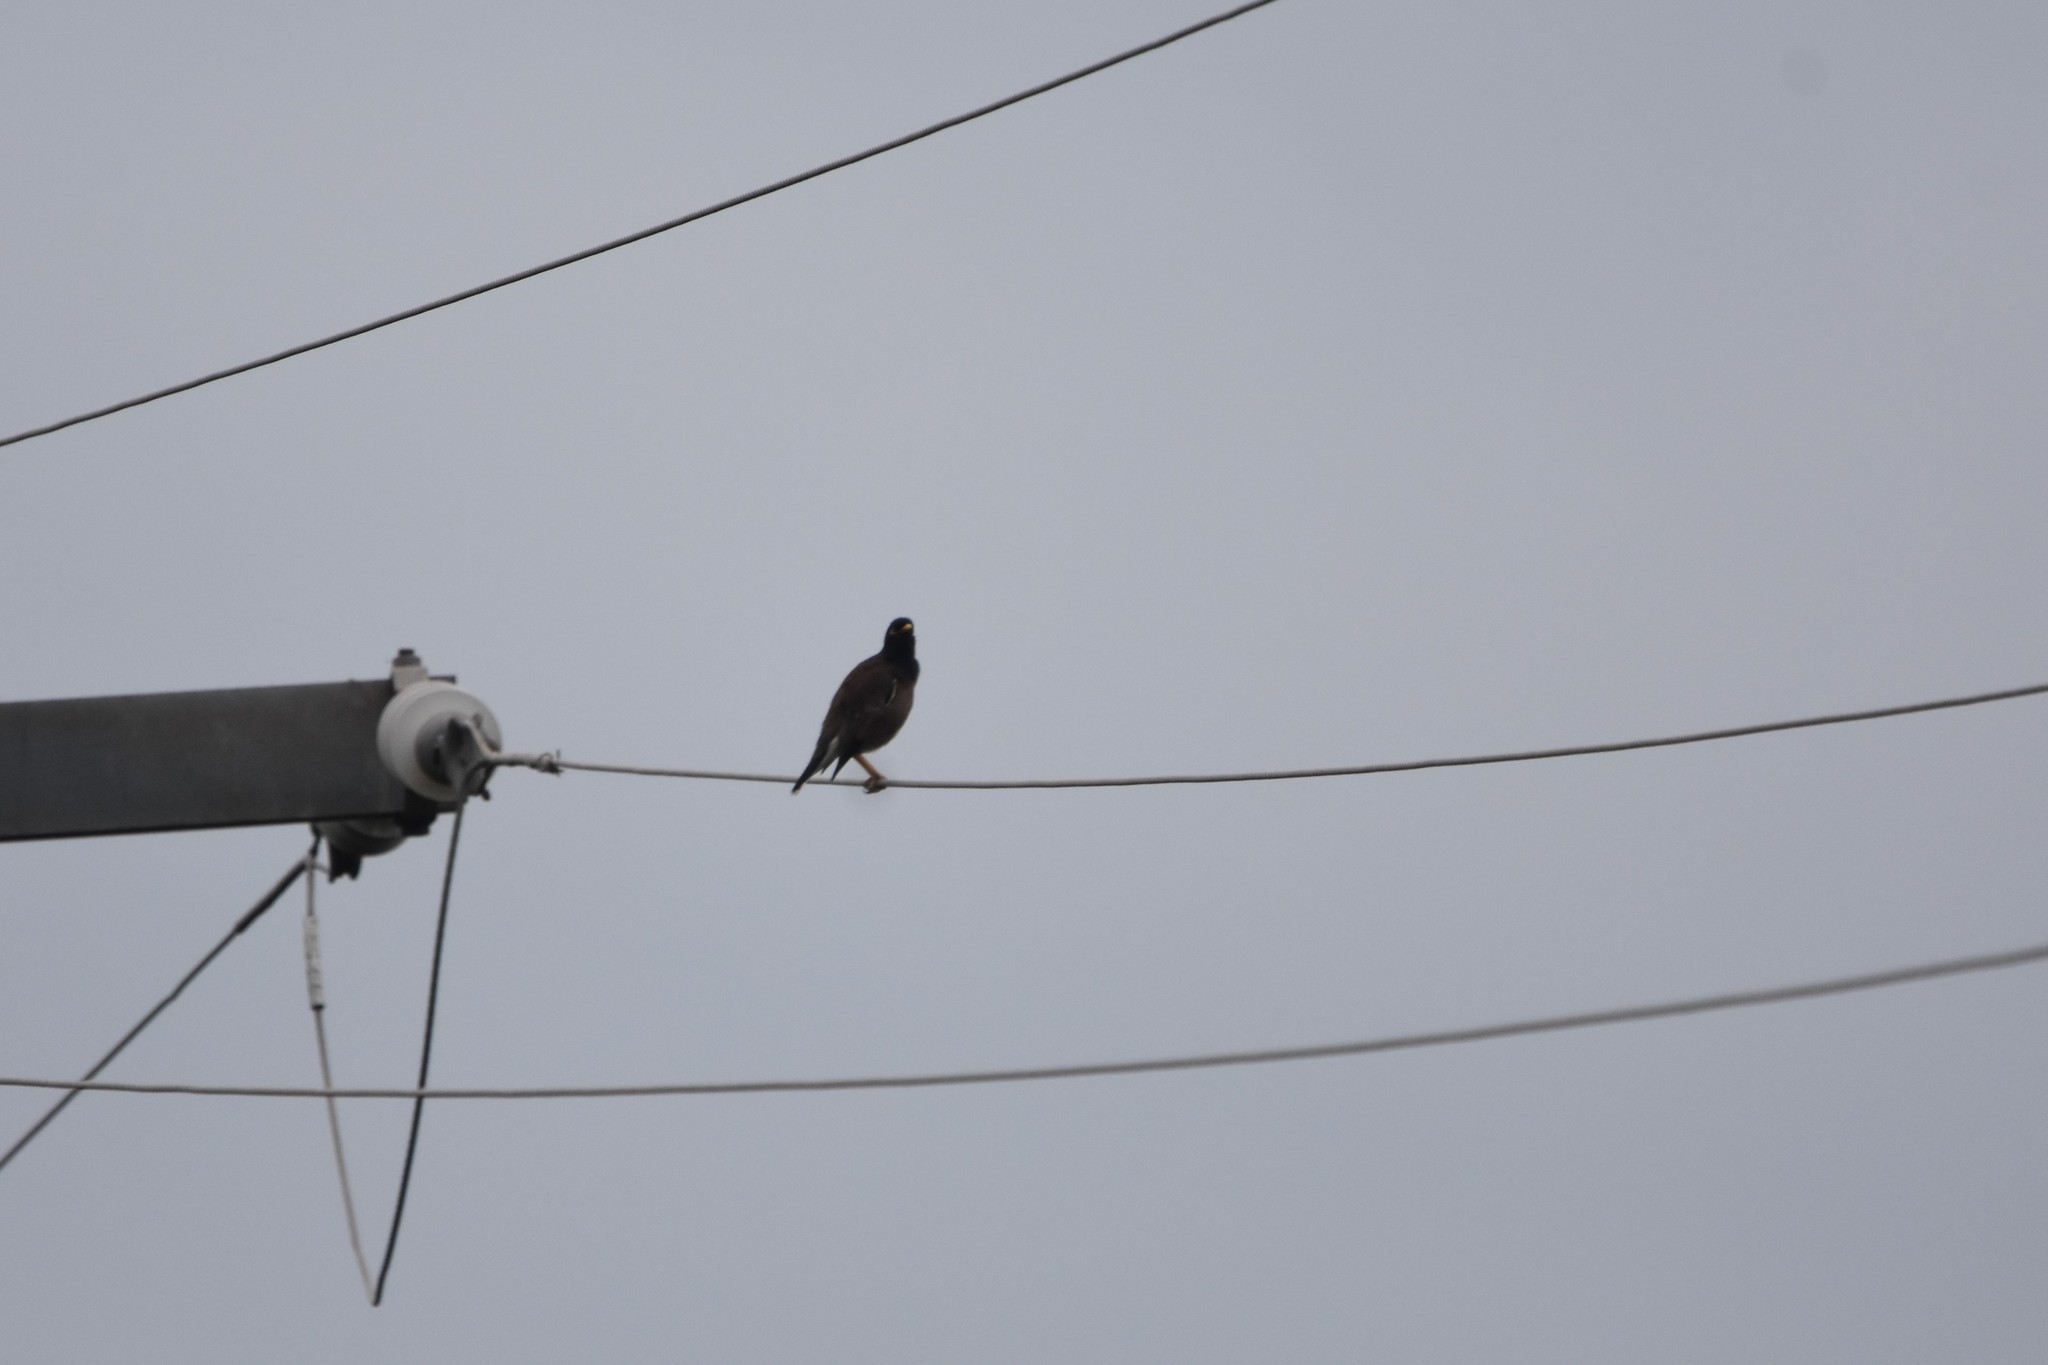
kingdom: Animalia
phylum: Chordata
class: Aves
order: Passeriformes
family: Sturnidae
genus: Acridotheres
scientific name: Acridotheres tristis
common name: Common myna
